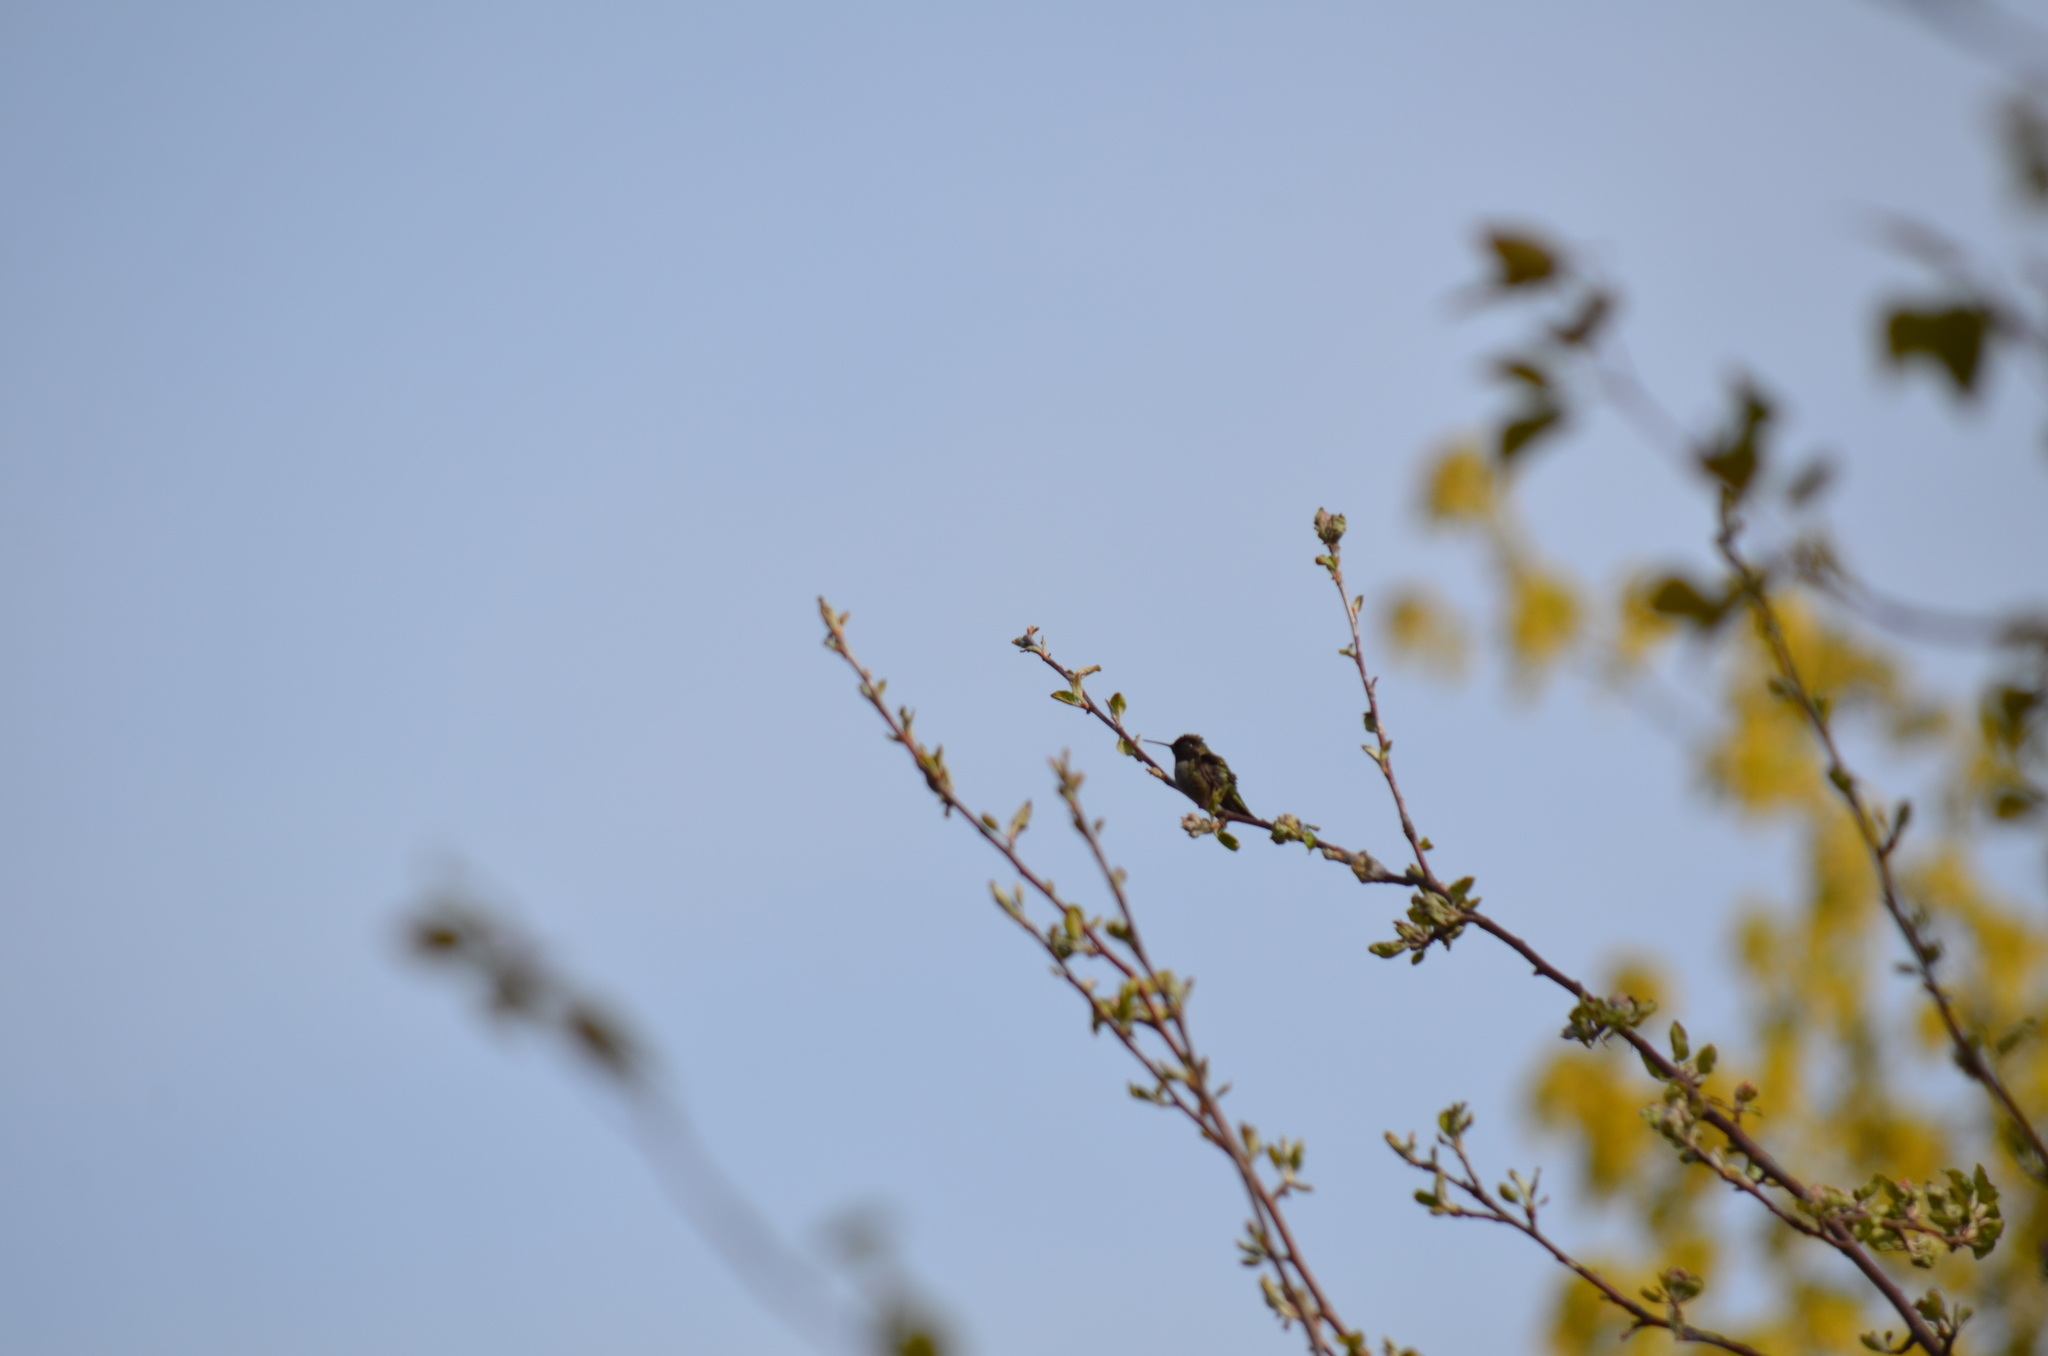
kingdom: Animalia
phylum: Chordata
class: Aves
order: Apodiformes
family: Trochilidae
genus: Calypte
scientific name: Calypte anna
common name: Anna's hummingbird
